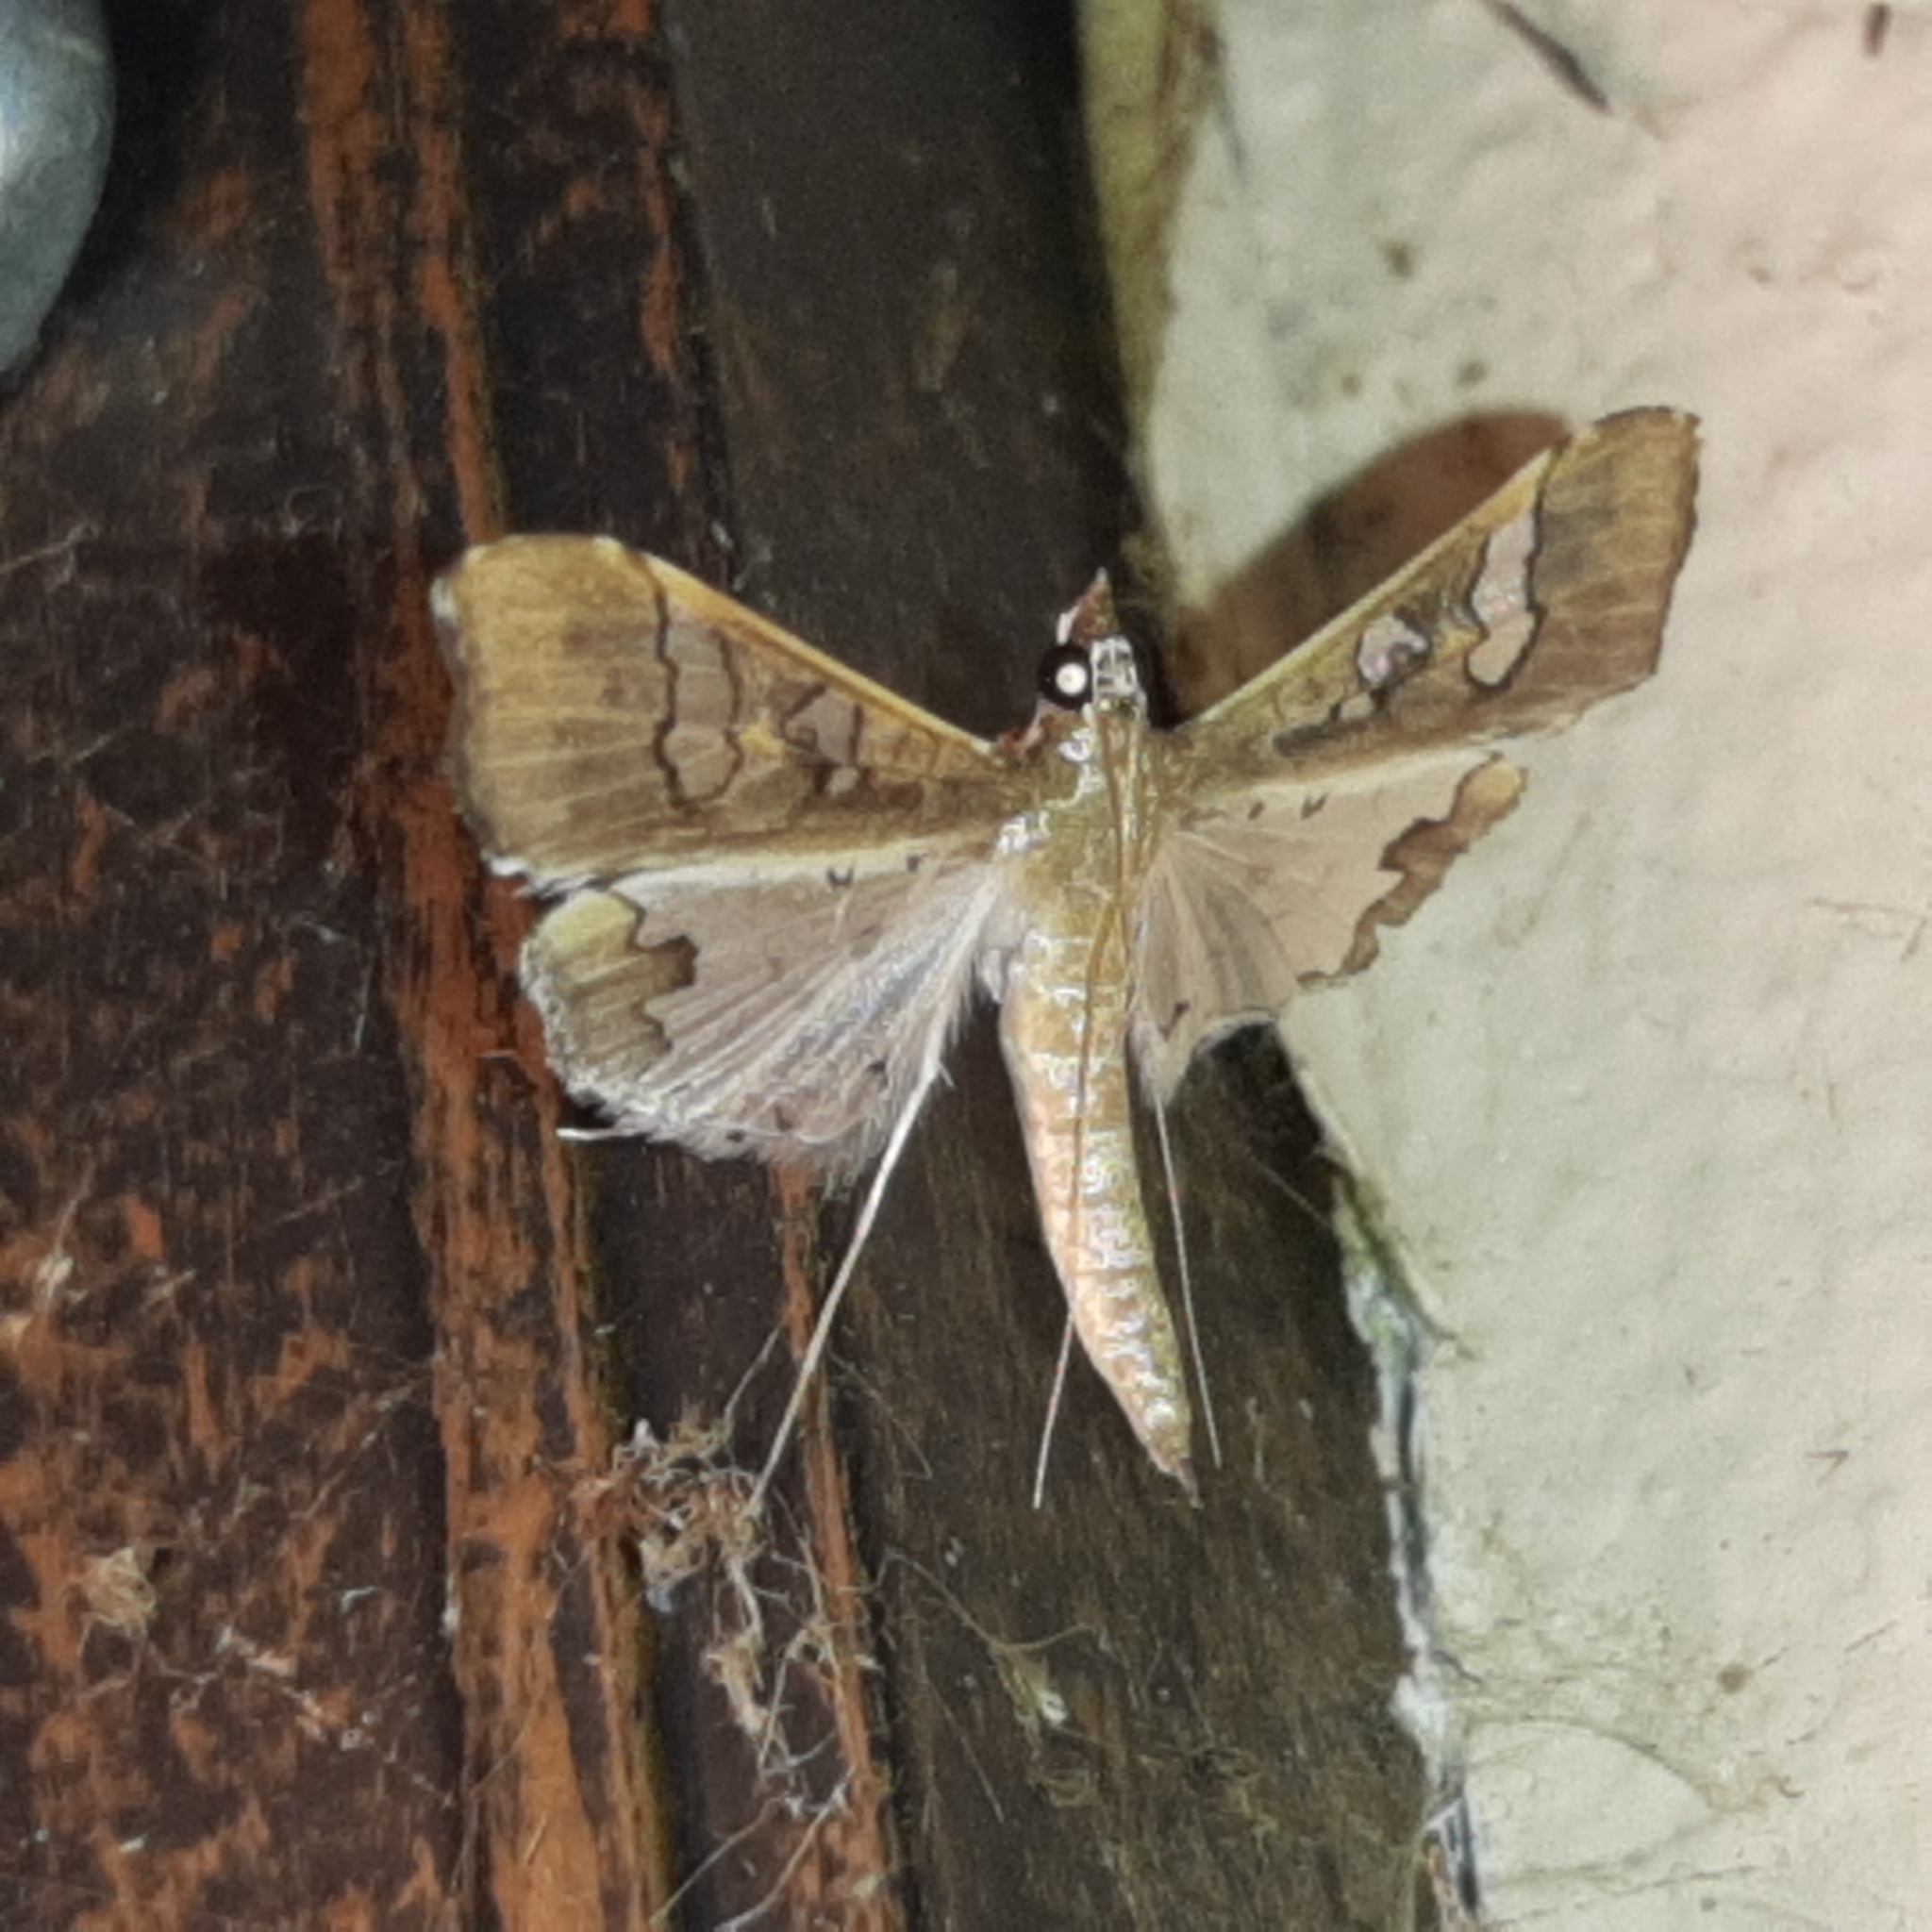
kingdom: Animalia
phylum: Arthropoda
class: Insecta
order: Lepidoptera
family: Crambidae
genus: Maruca
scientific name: Maruca vitrata
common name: Maruca pod borer
